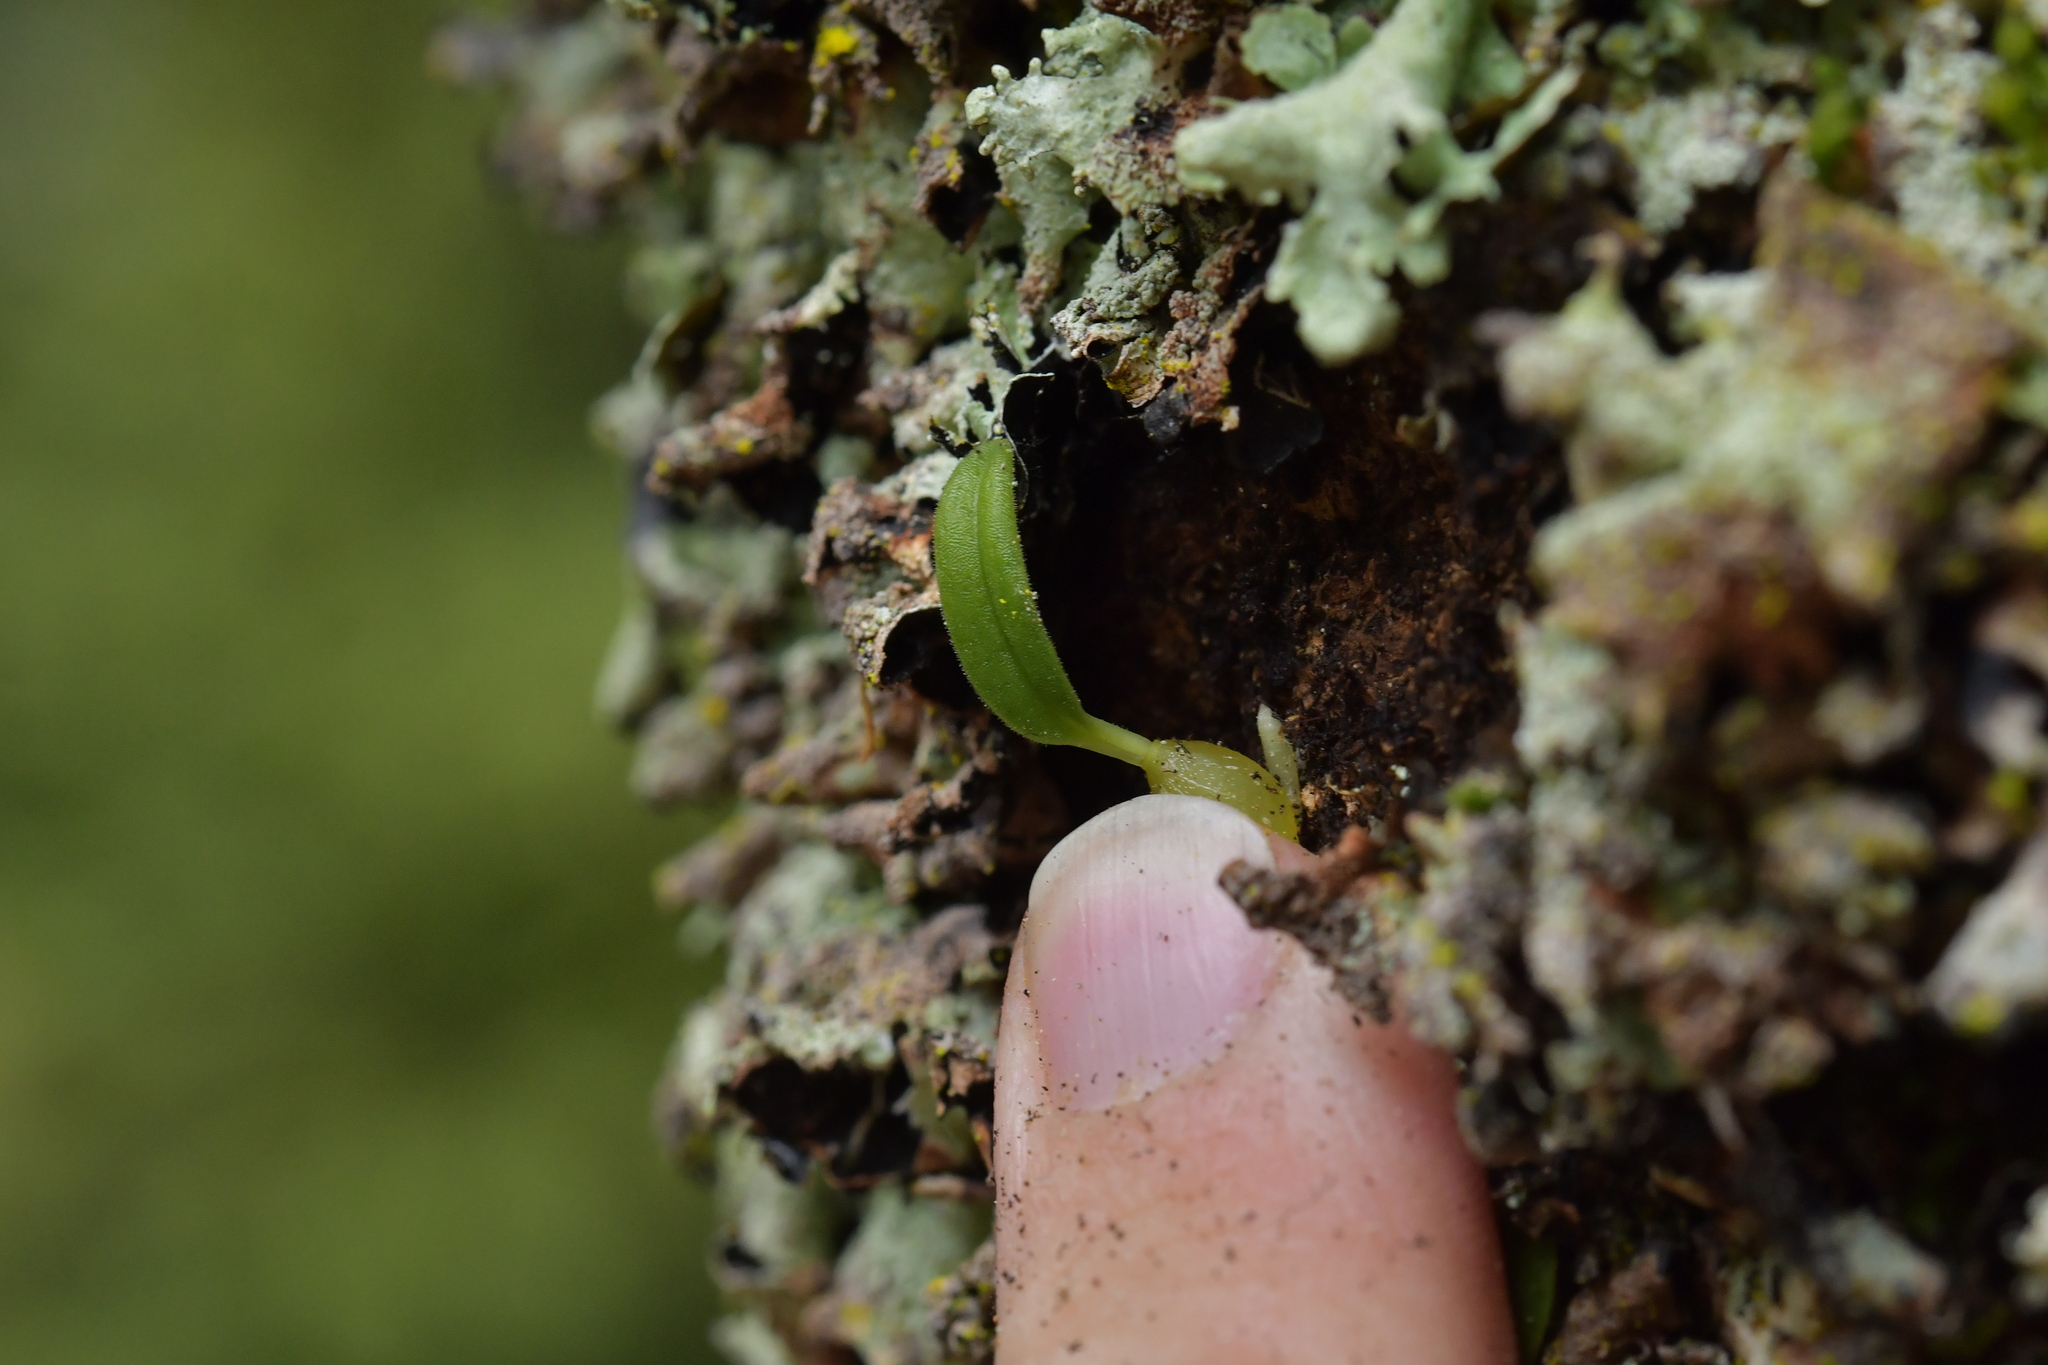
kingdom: Plantae
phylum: Tracheophyta
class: Liliopsida
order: Asparagales
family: Orchidaceae
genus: Bulbophyllum
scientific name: Bulbophyllum pygmaeum
